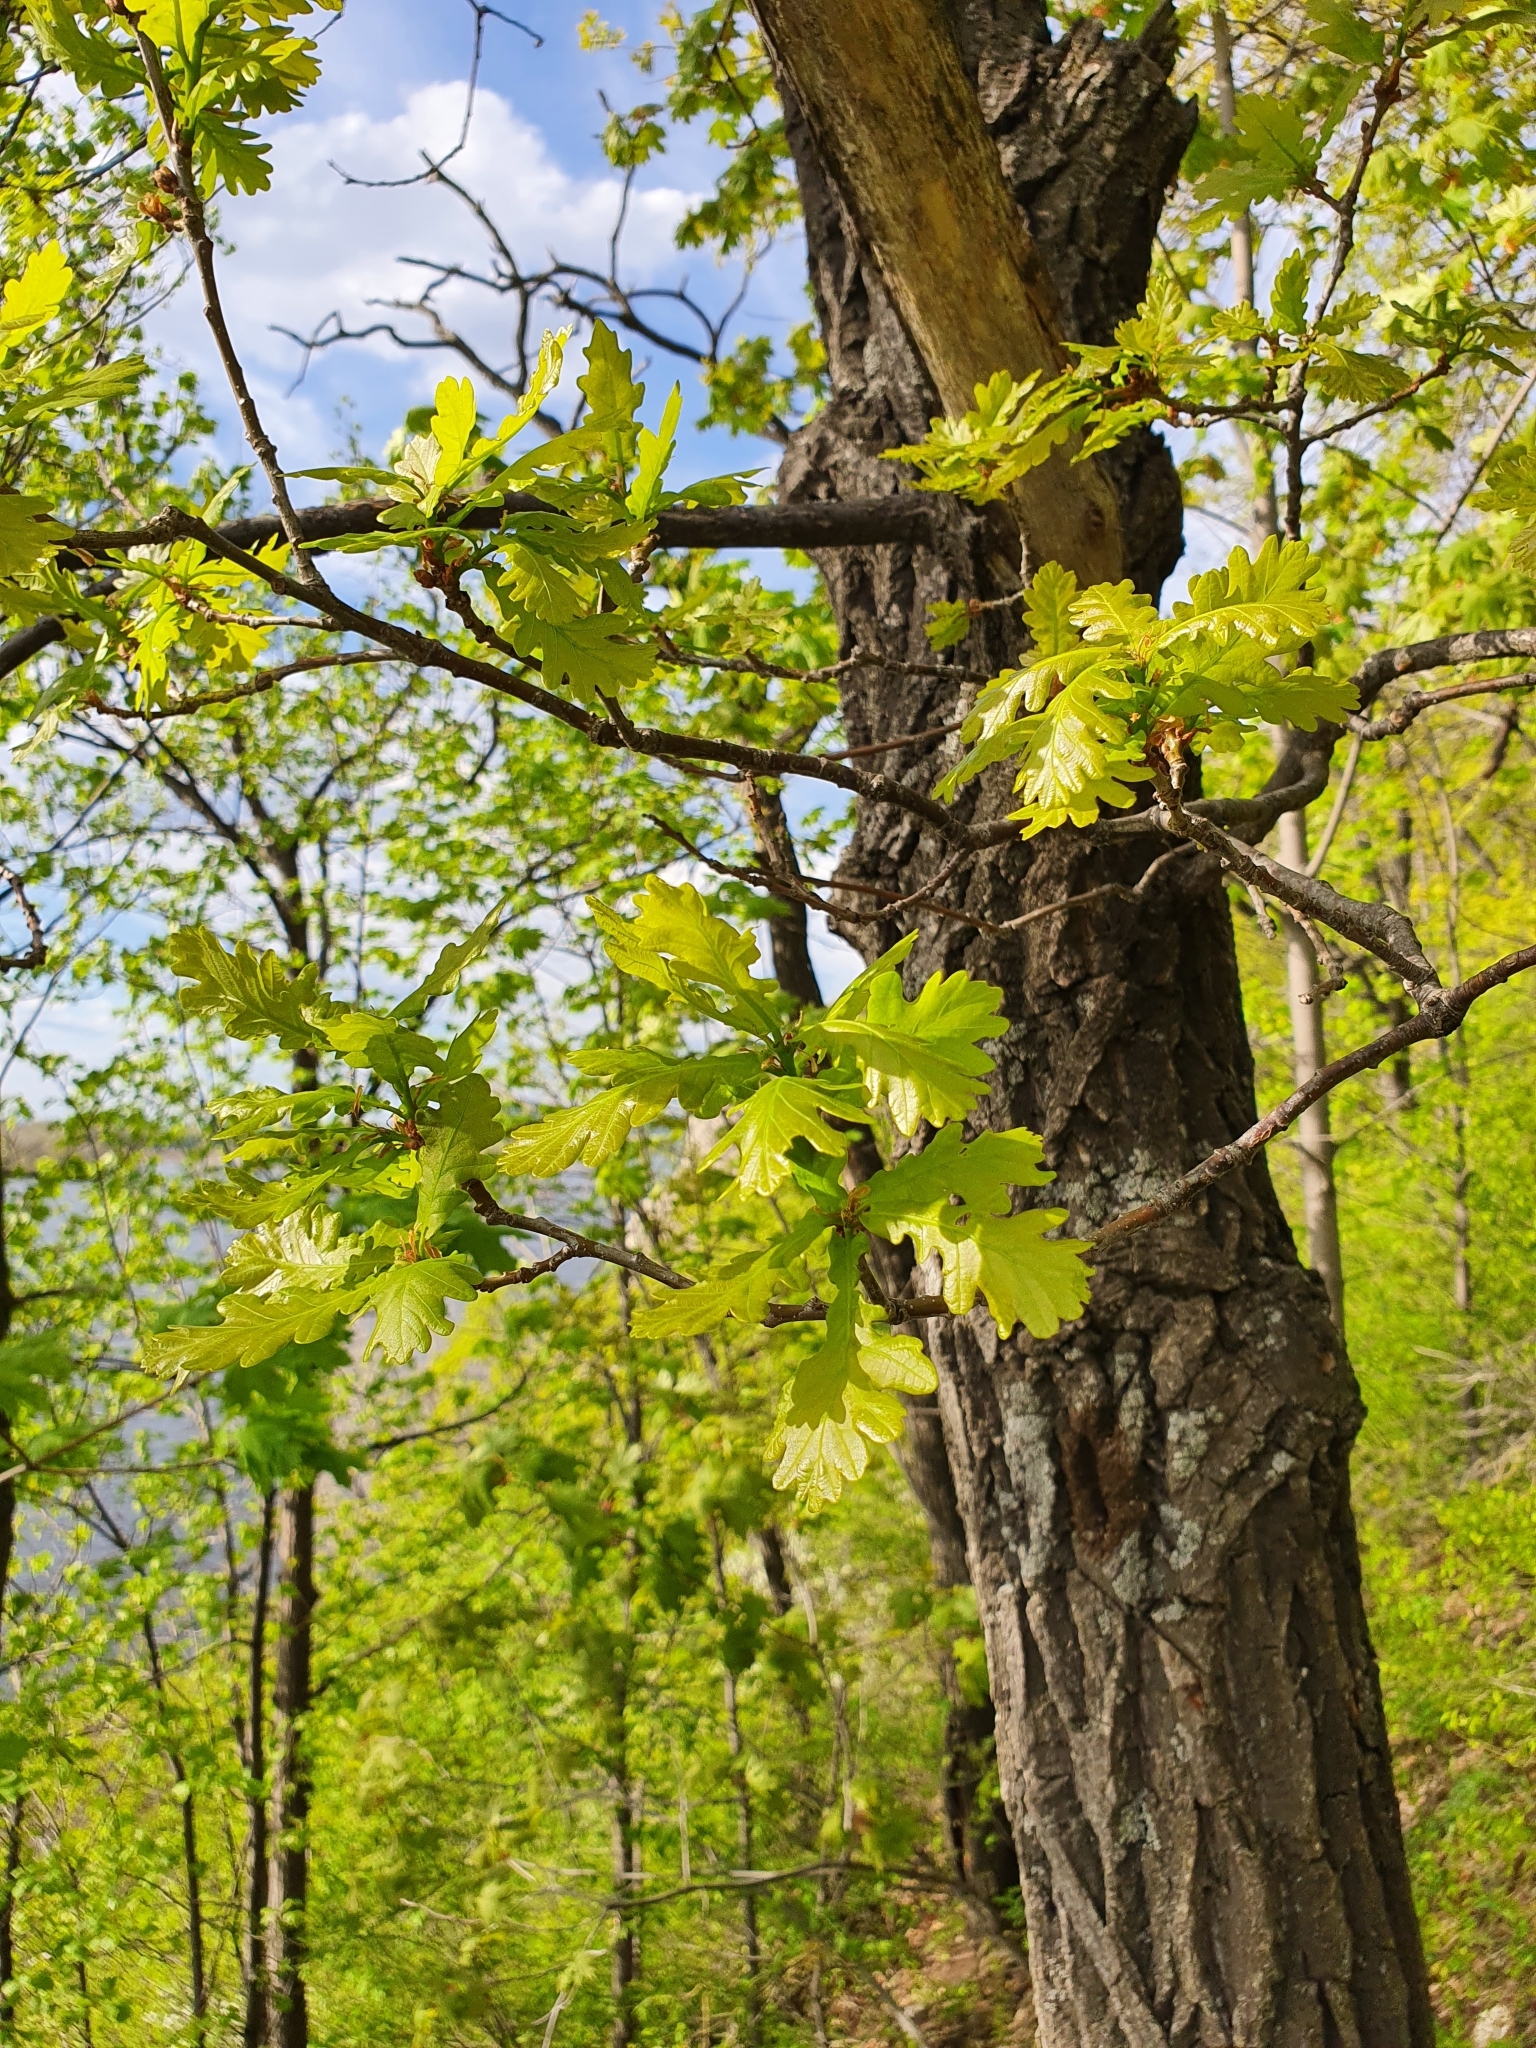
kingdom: Plantae
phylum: Tracheophyta
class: Magnoliopsida
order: Fagales
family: Fagaceae
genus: Quercus
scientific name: Quercus robur
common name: Pedunculate oak
